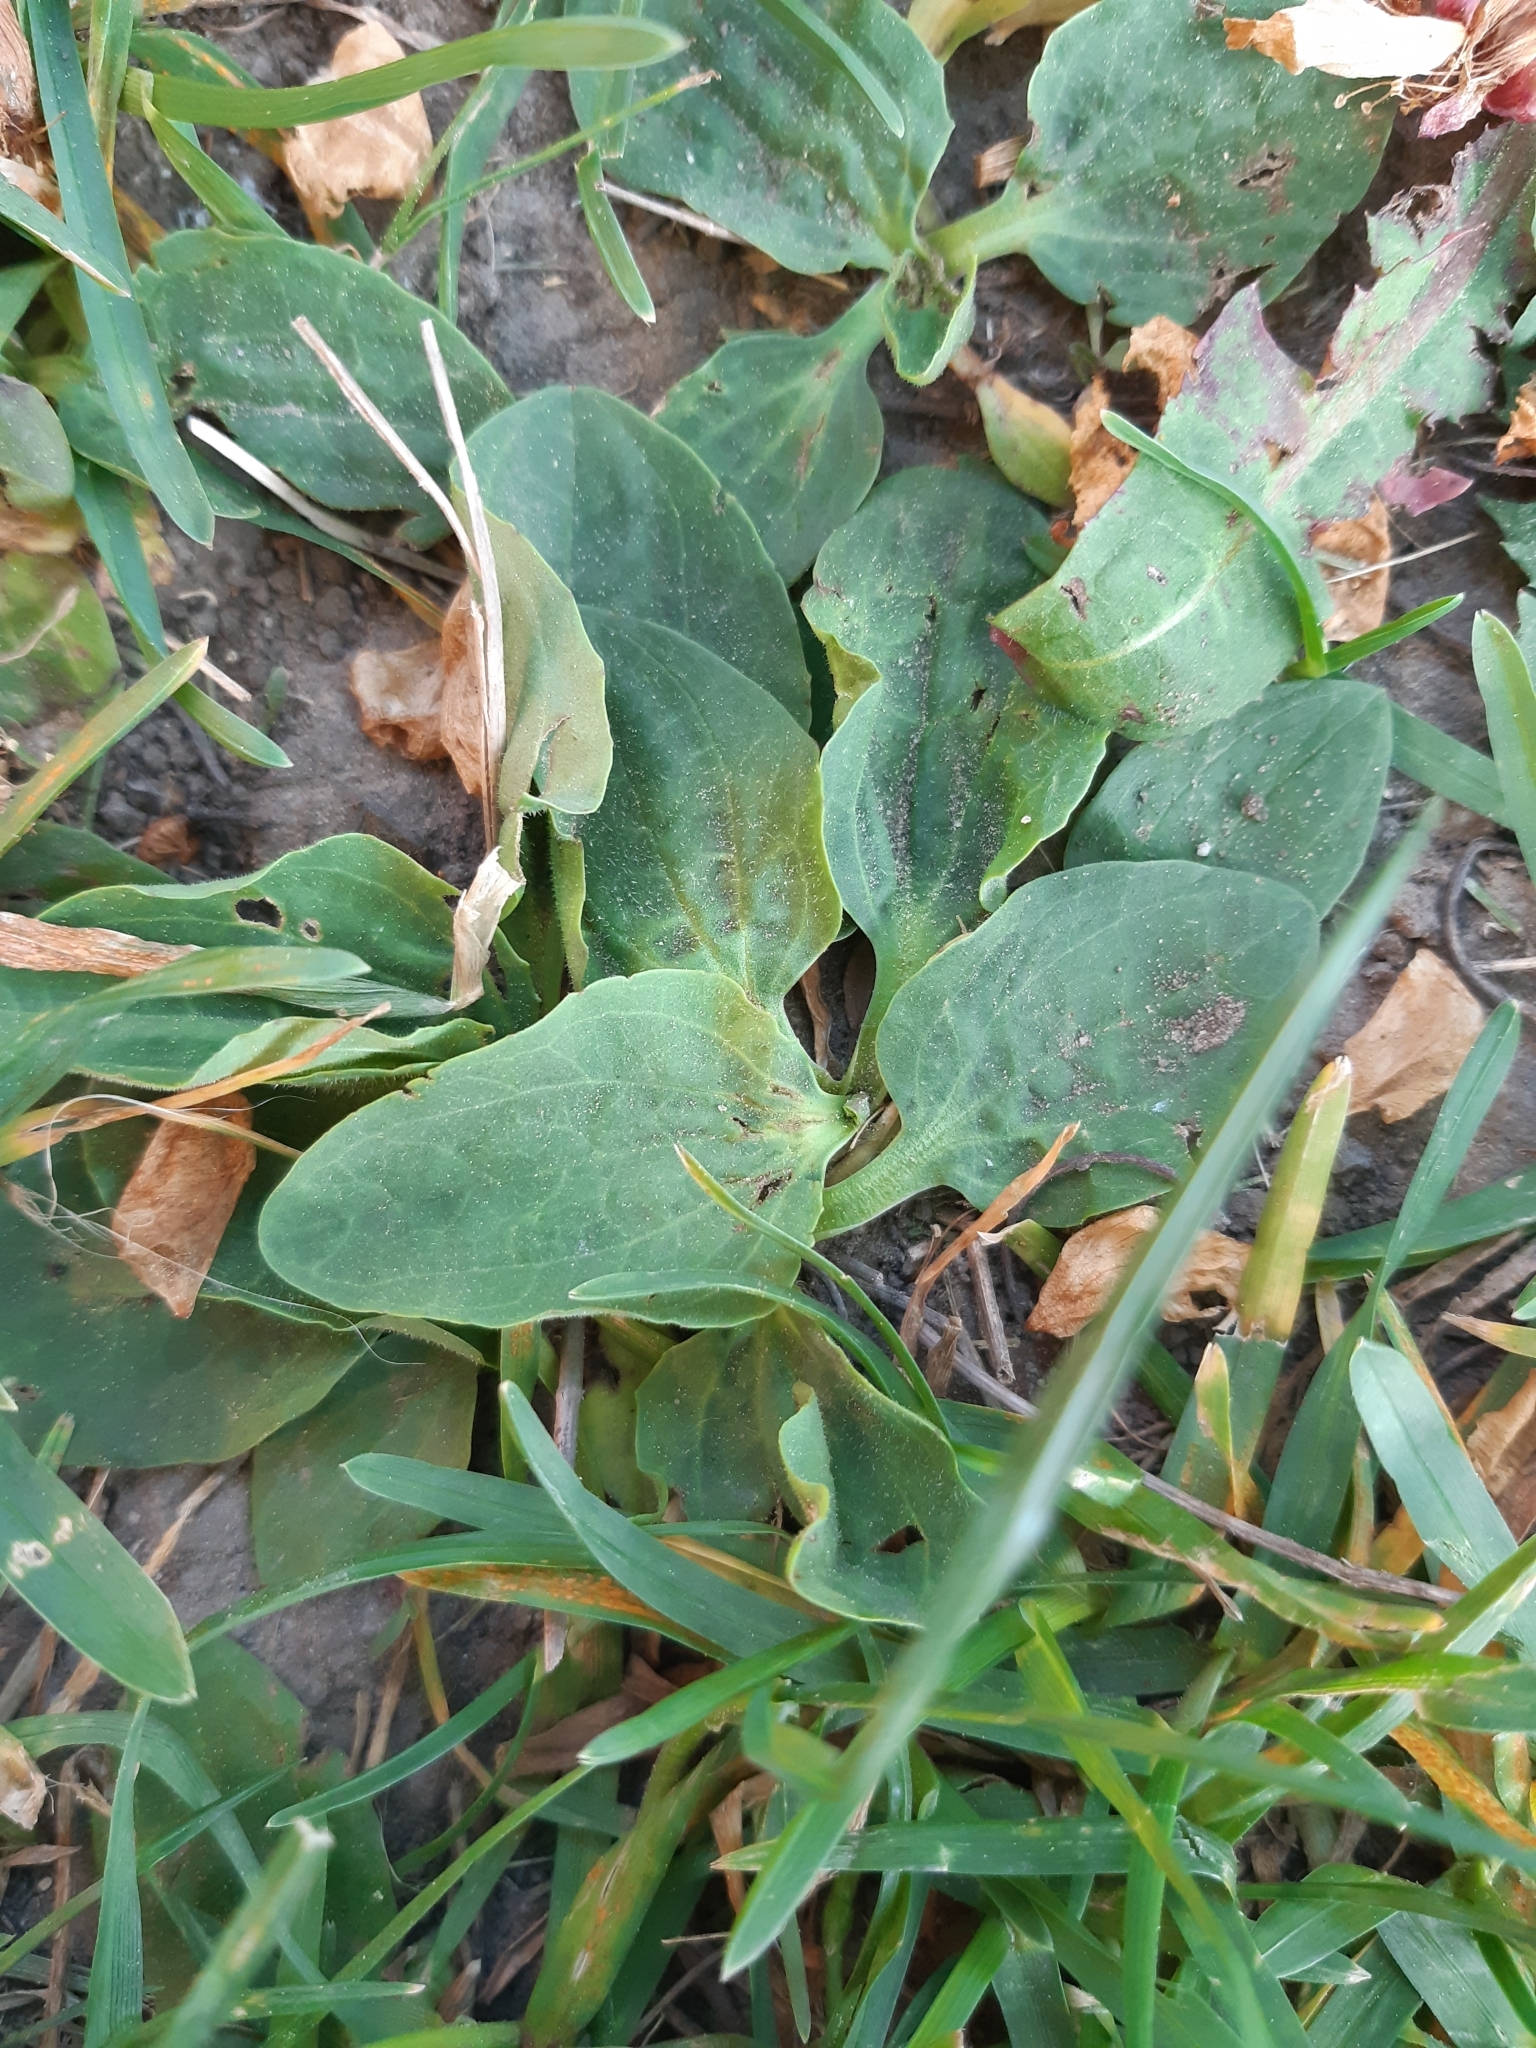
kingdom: Plantae
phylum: Tracheophyta
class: Magnoliopsida
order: Lamiales
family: Plantaginaceae
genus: Plantago
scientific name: Plantago major
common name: Common plantain
